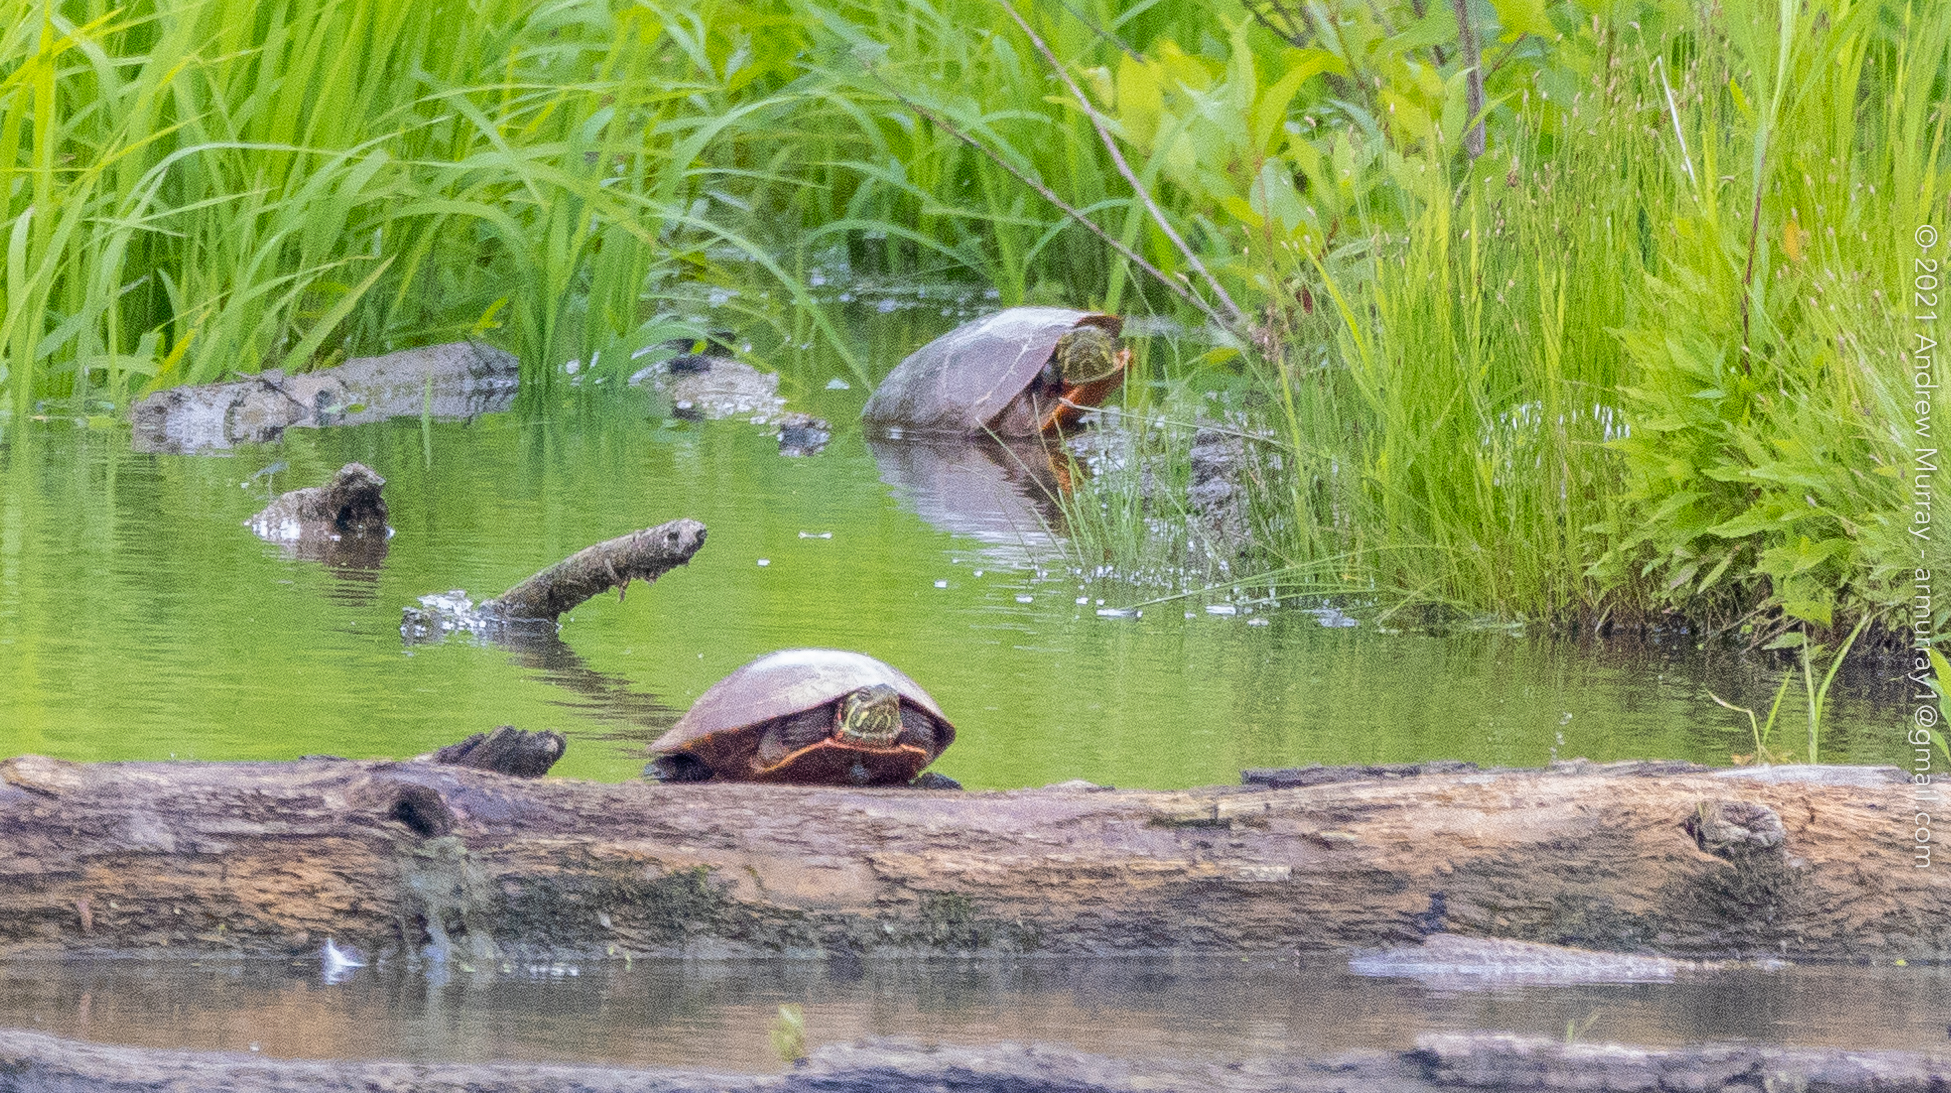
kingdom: Animalia
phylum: Chordata
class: Testudines
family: Emydidae
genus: Chrysemys
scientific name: Chrysemys picta
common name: Painted turtle
